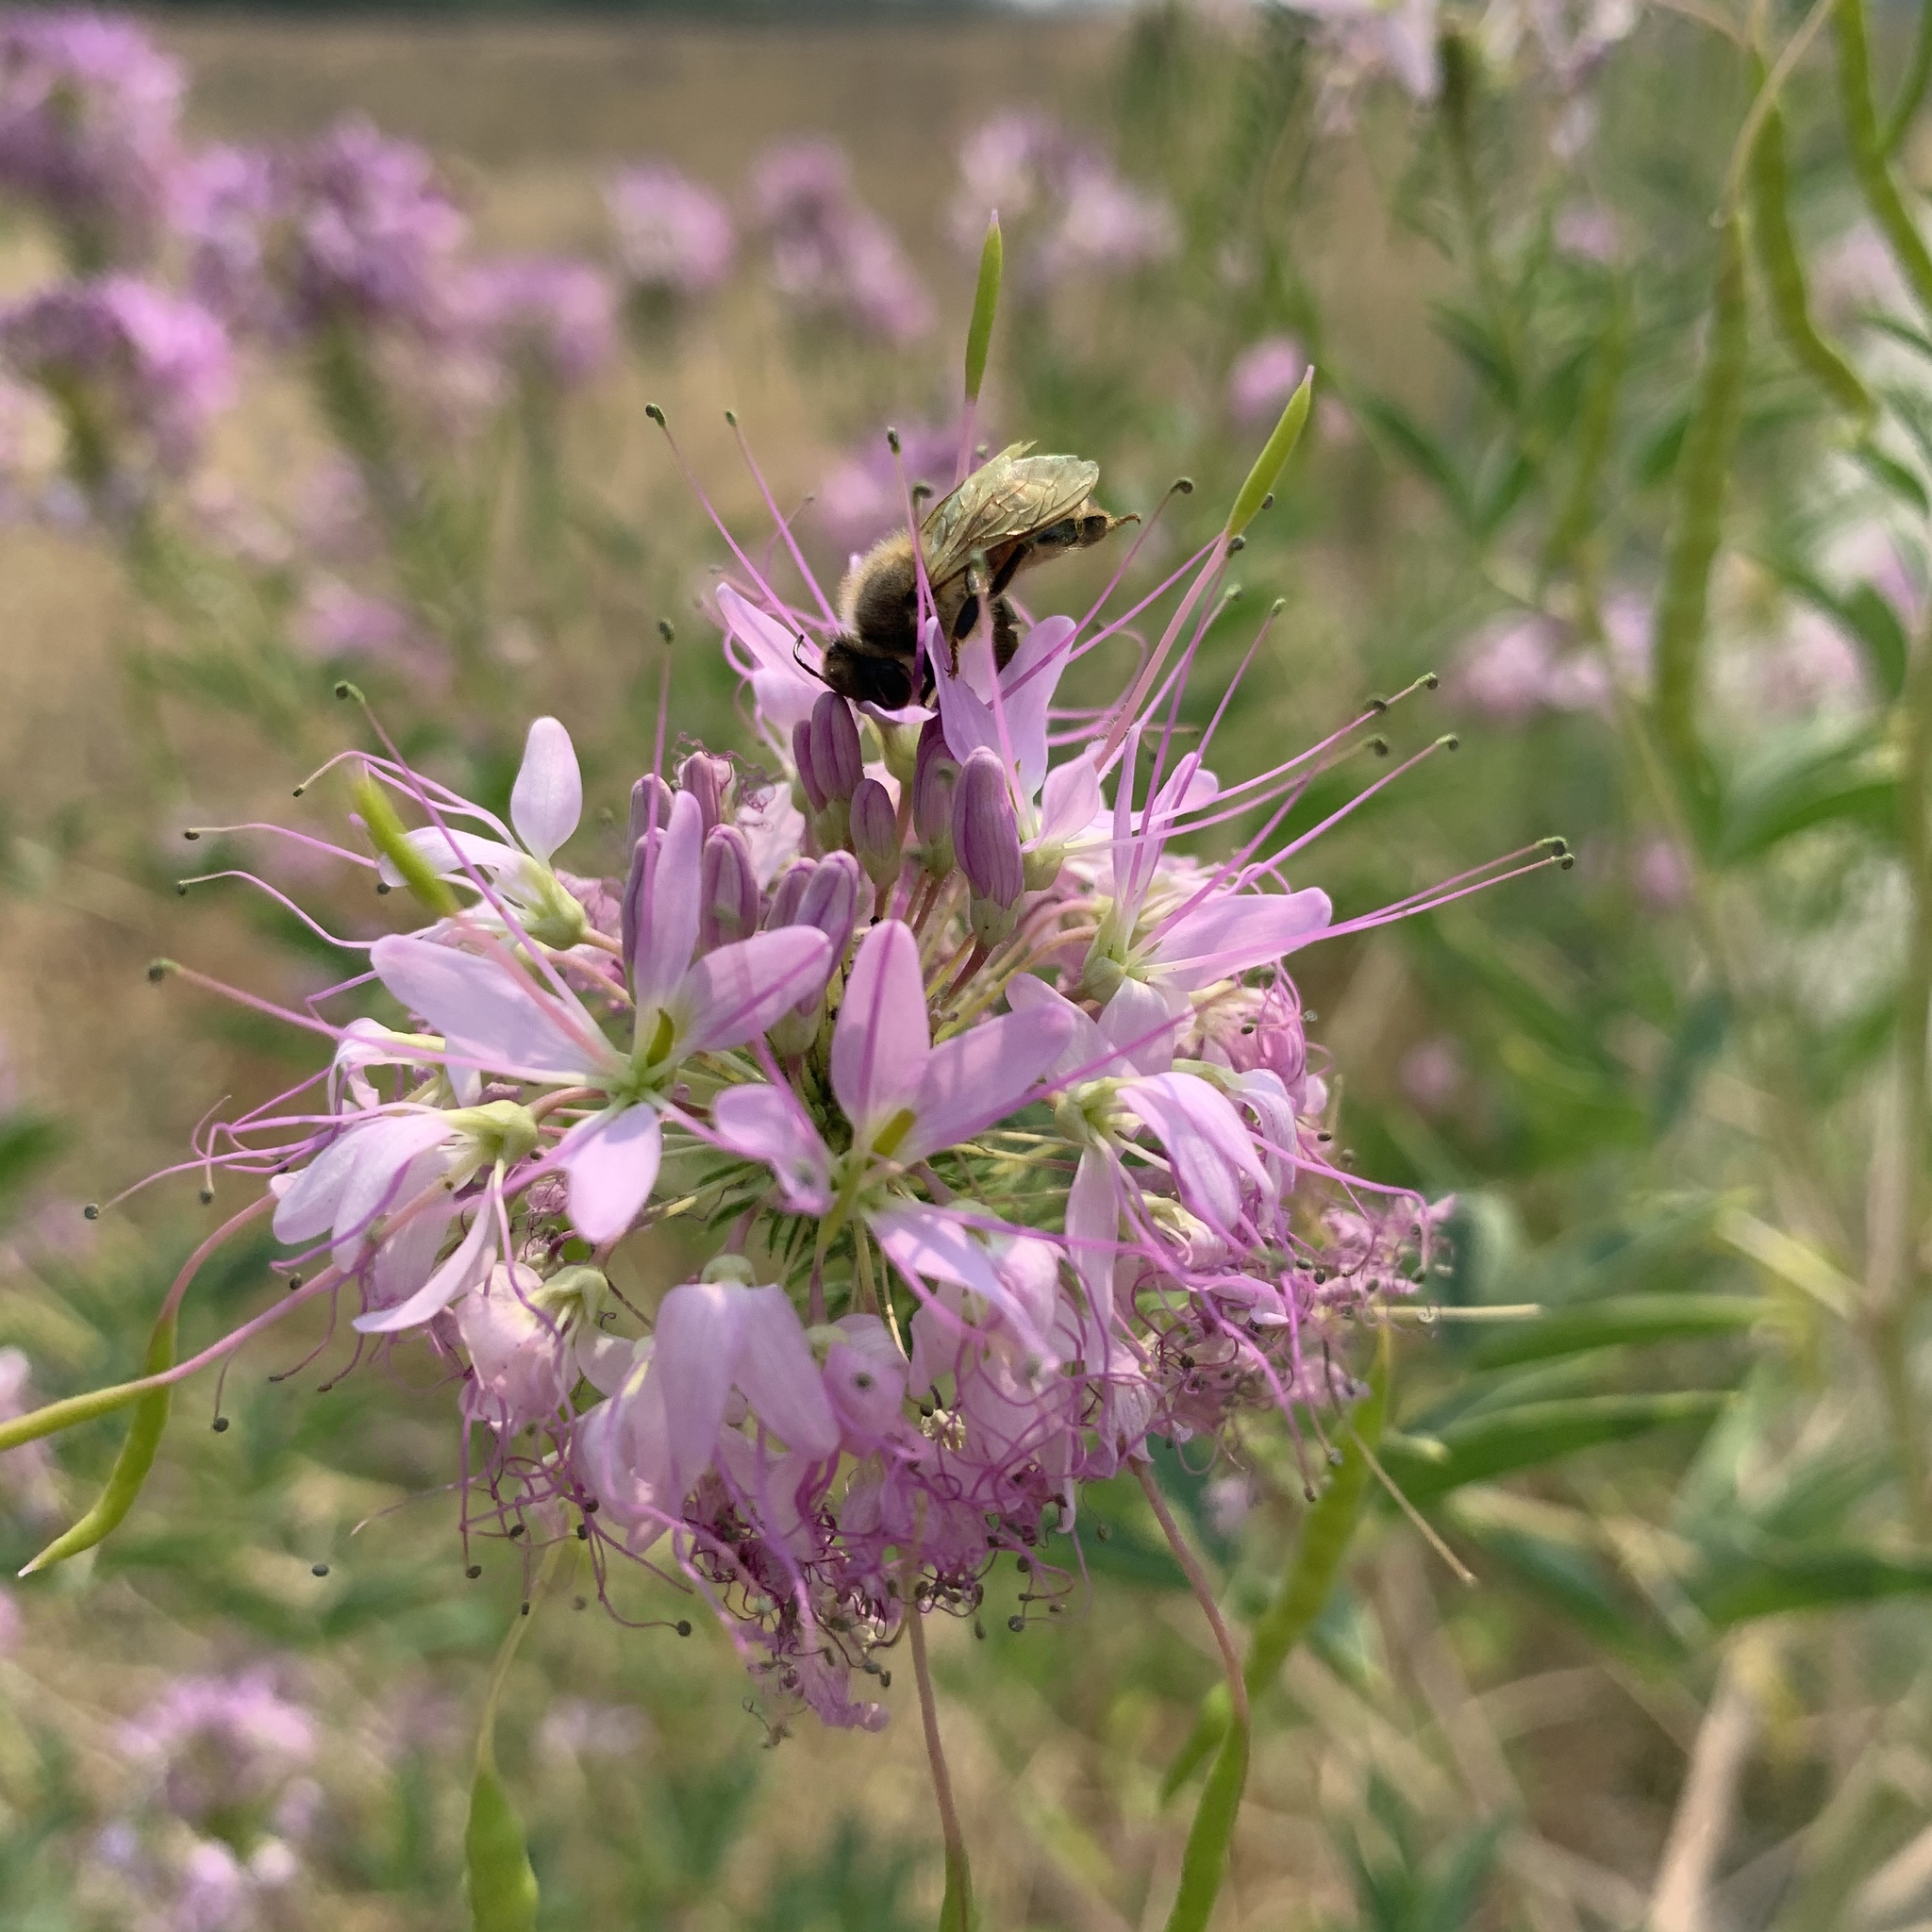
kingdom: Plantae
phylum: Tracheophyta
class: Magnoliopsida
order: Brassicales
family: Cleomaceae
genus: Cleomella
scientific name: Cleomella serrulata
